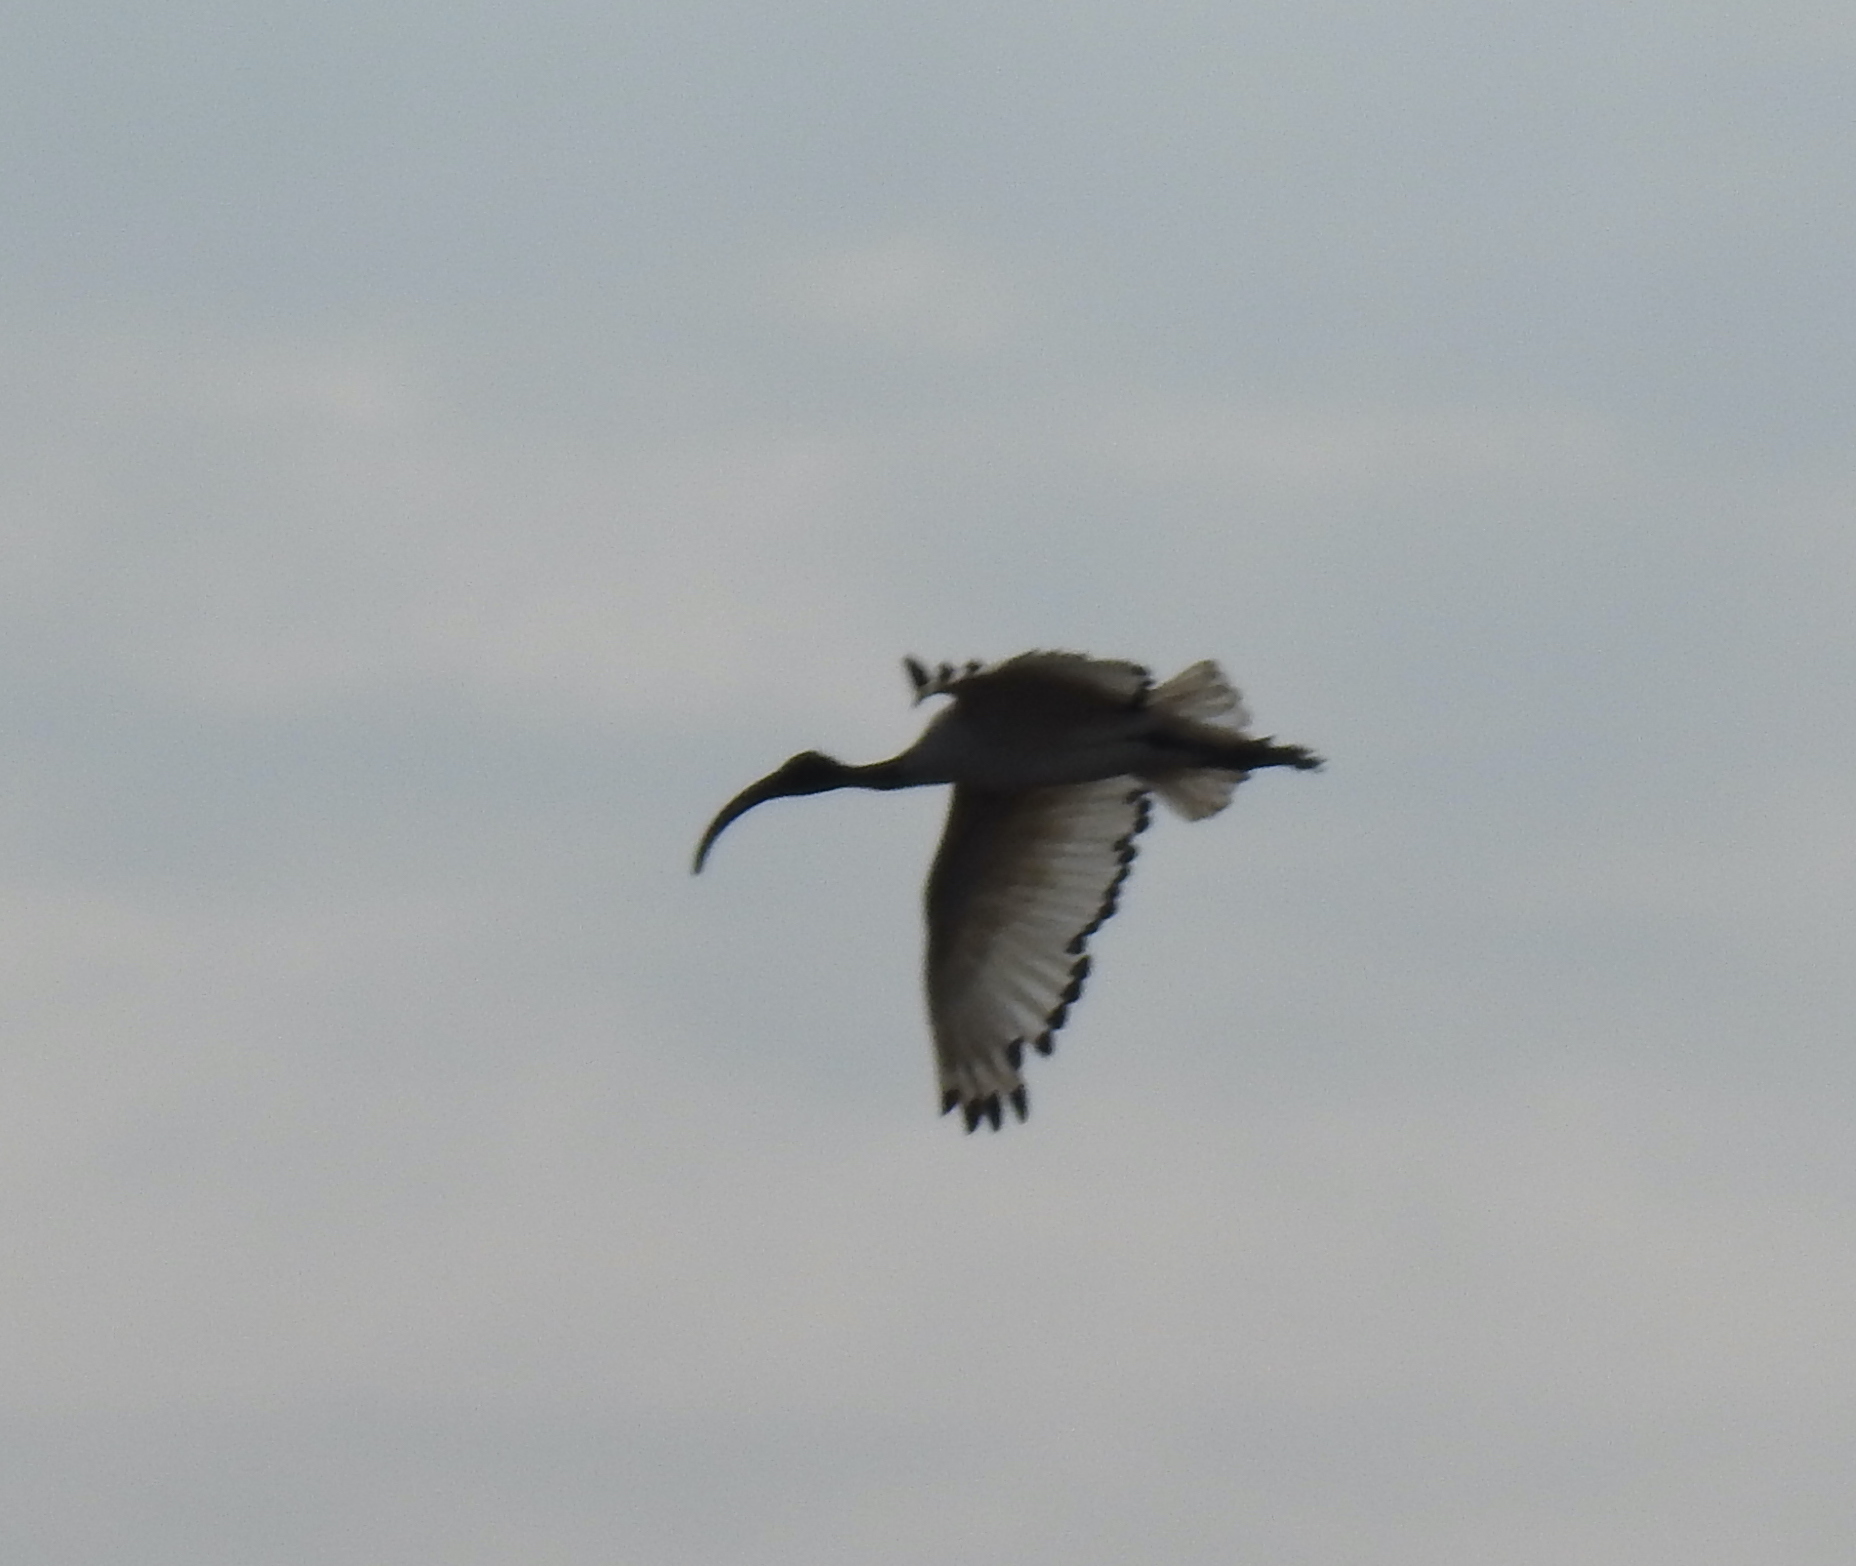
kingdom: Animalia
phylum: Chordata
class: Aves
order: Pelecaniformes
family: Threskiornithidae
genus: Threskiornis
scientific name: Threskiornis aethiopicus
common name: Sacred ibis
